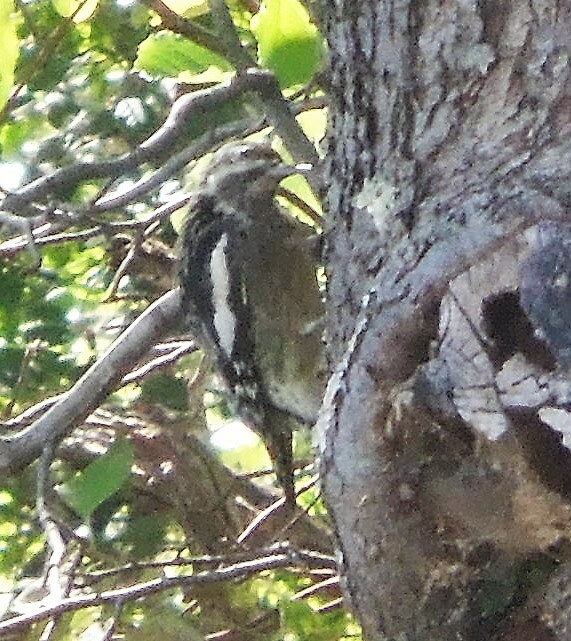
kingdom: Animalia
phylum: Chordata
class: Aves
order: Piciformes
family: Picidae
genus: Sphyrapicus
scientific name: Sphyrapicus varius
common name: Yellow-bellied sapsucker
